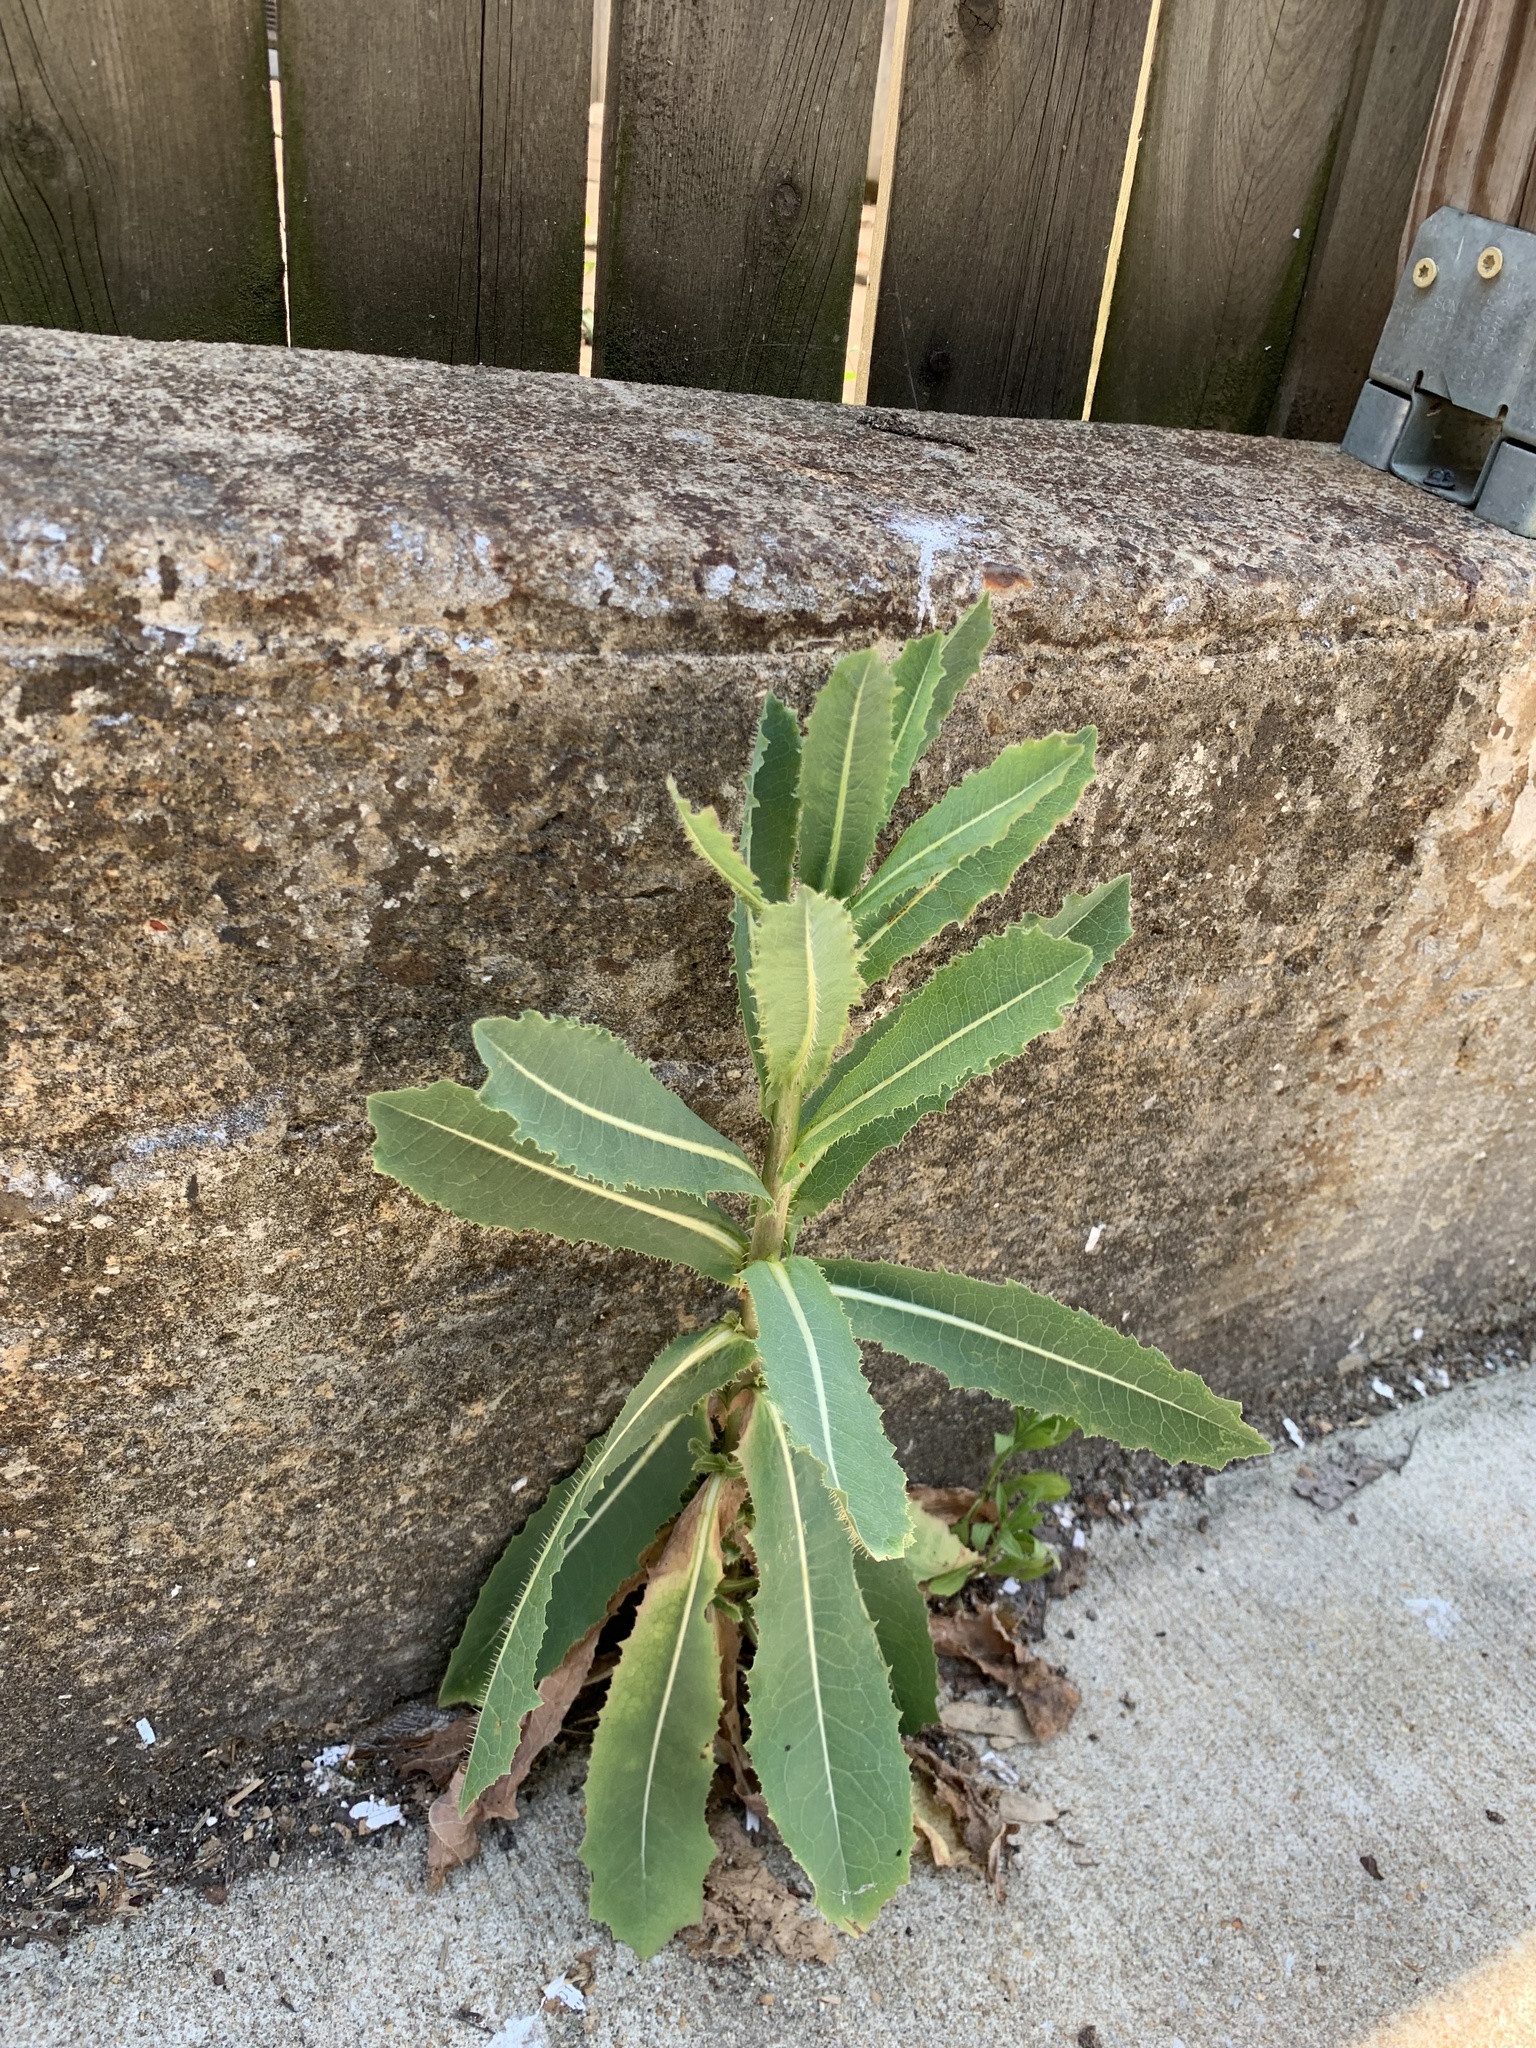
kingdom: Plantae
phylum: Tracheophyta
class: Magnoliopsida
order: Asterales
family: Asteraceae
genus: Lactuca
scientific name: Lactuca serriola
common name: Prickly lettuce
